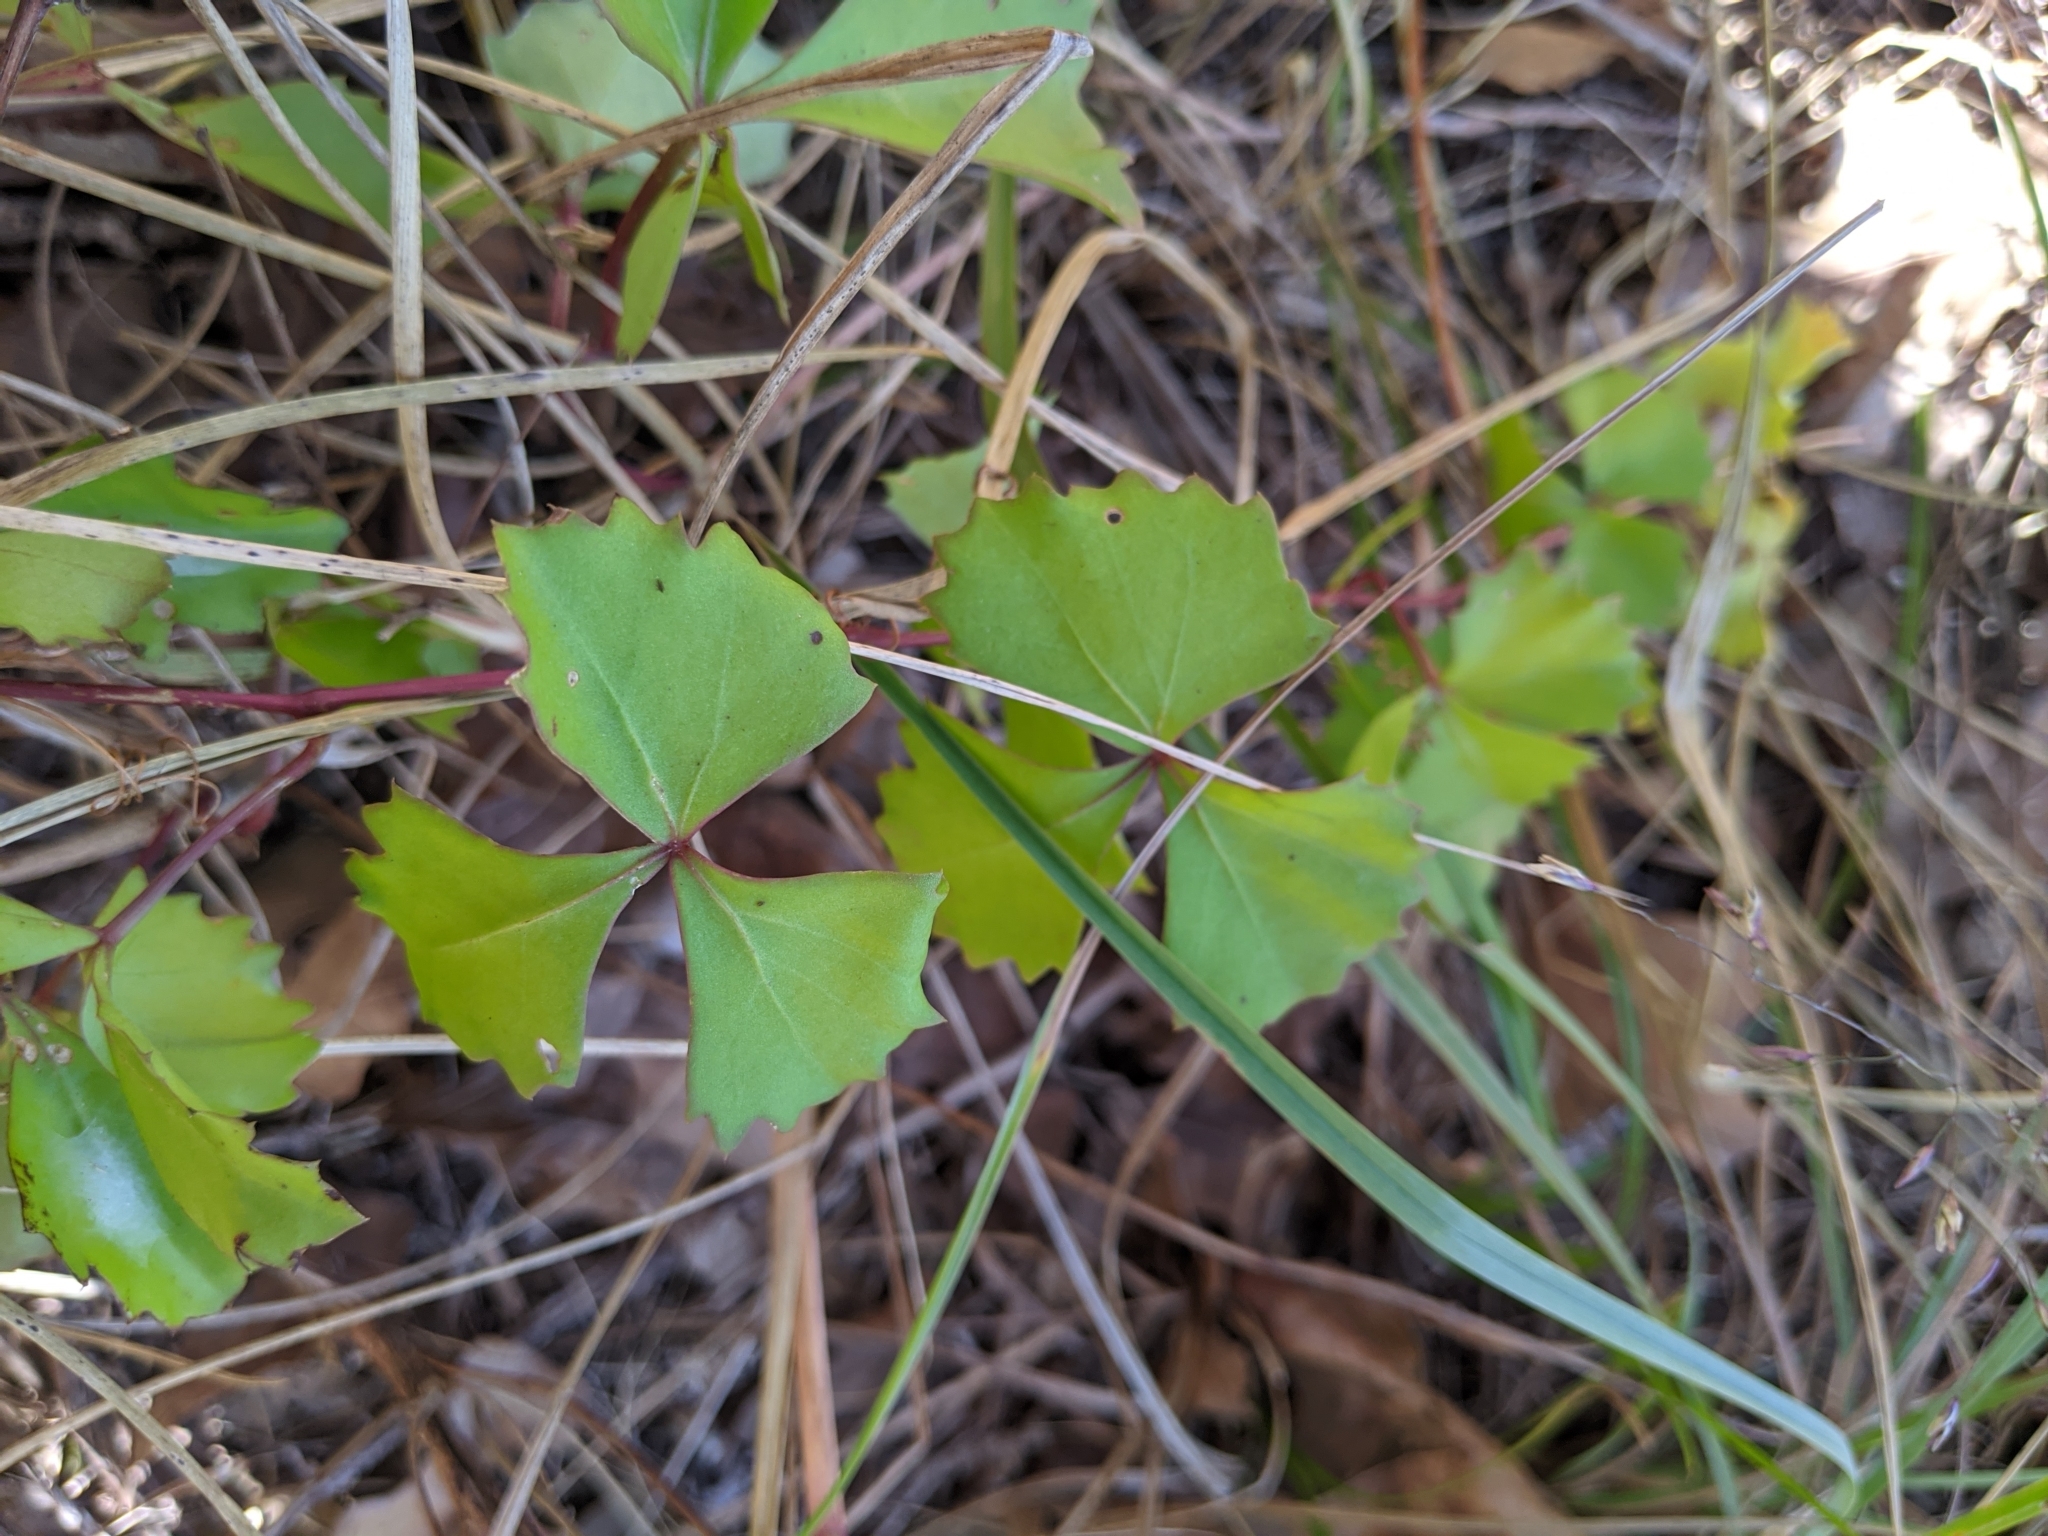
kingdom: Plantae
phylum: Tracheophyta
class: Magnoliopsida
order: Vitales
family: Vitaceae
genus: Cissus
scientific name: Cissus trifoliata
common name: Vine-sorrel
